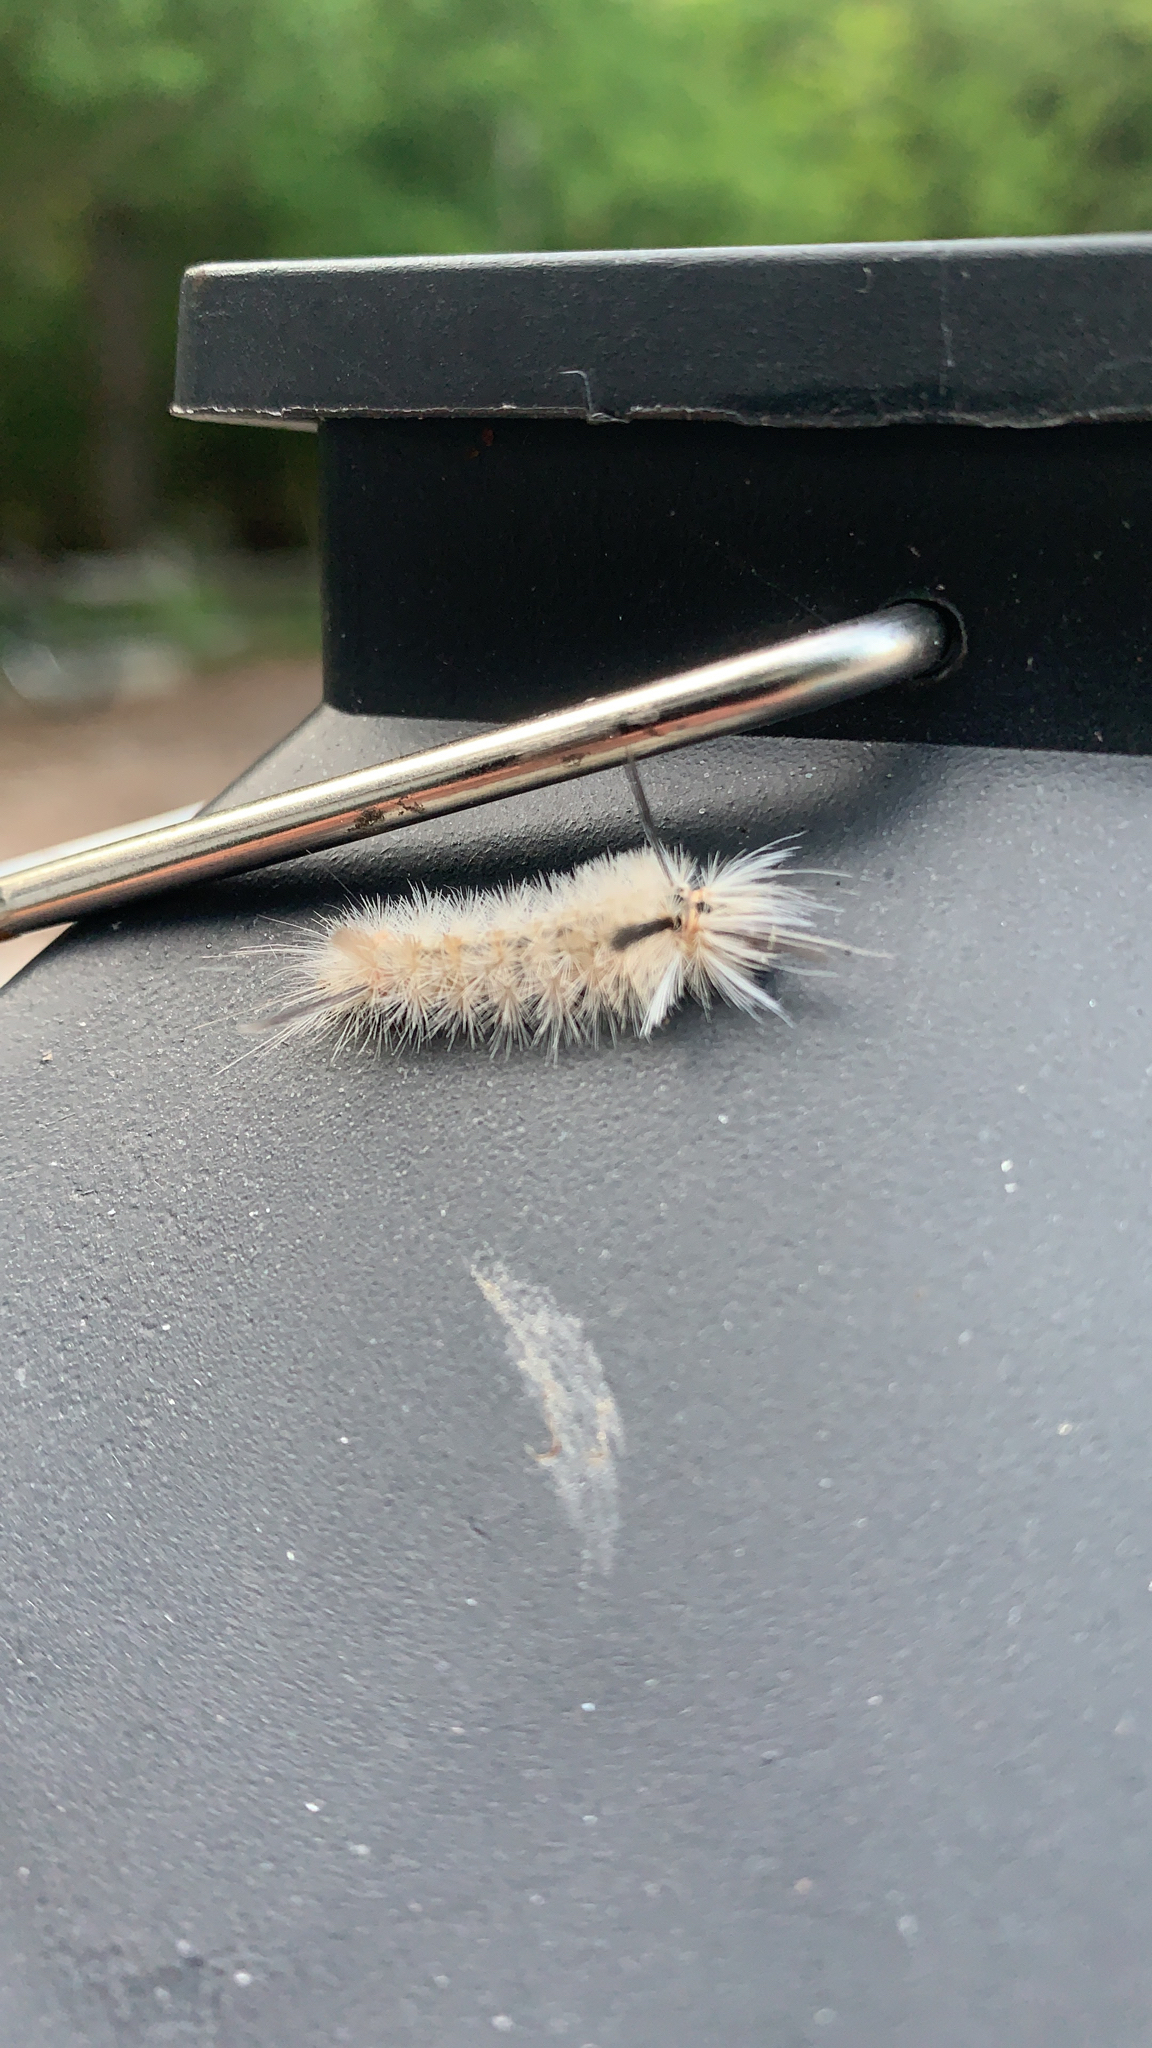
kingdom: Animalia
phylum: Arthropoda
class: Insecta
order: Lepidoptera
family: Erebidae
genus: Halysidota
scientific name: Halysidota tessellaris
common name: Banded tussock moth
